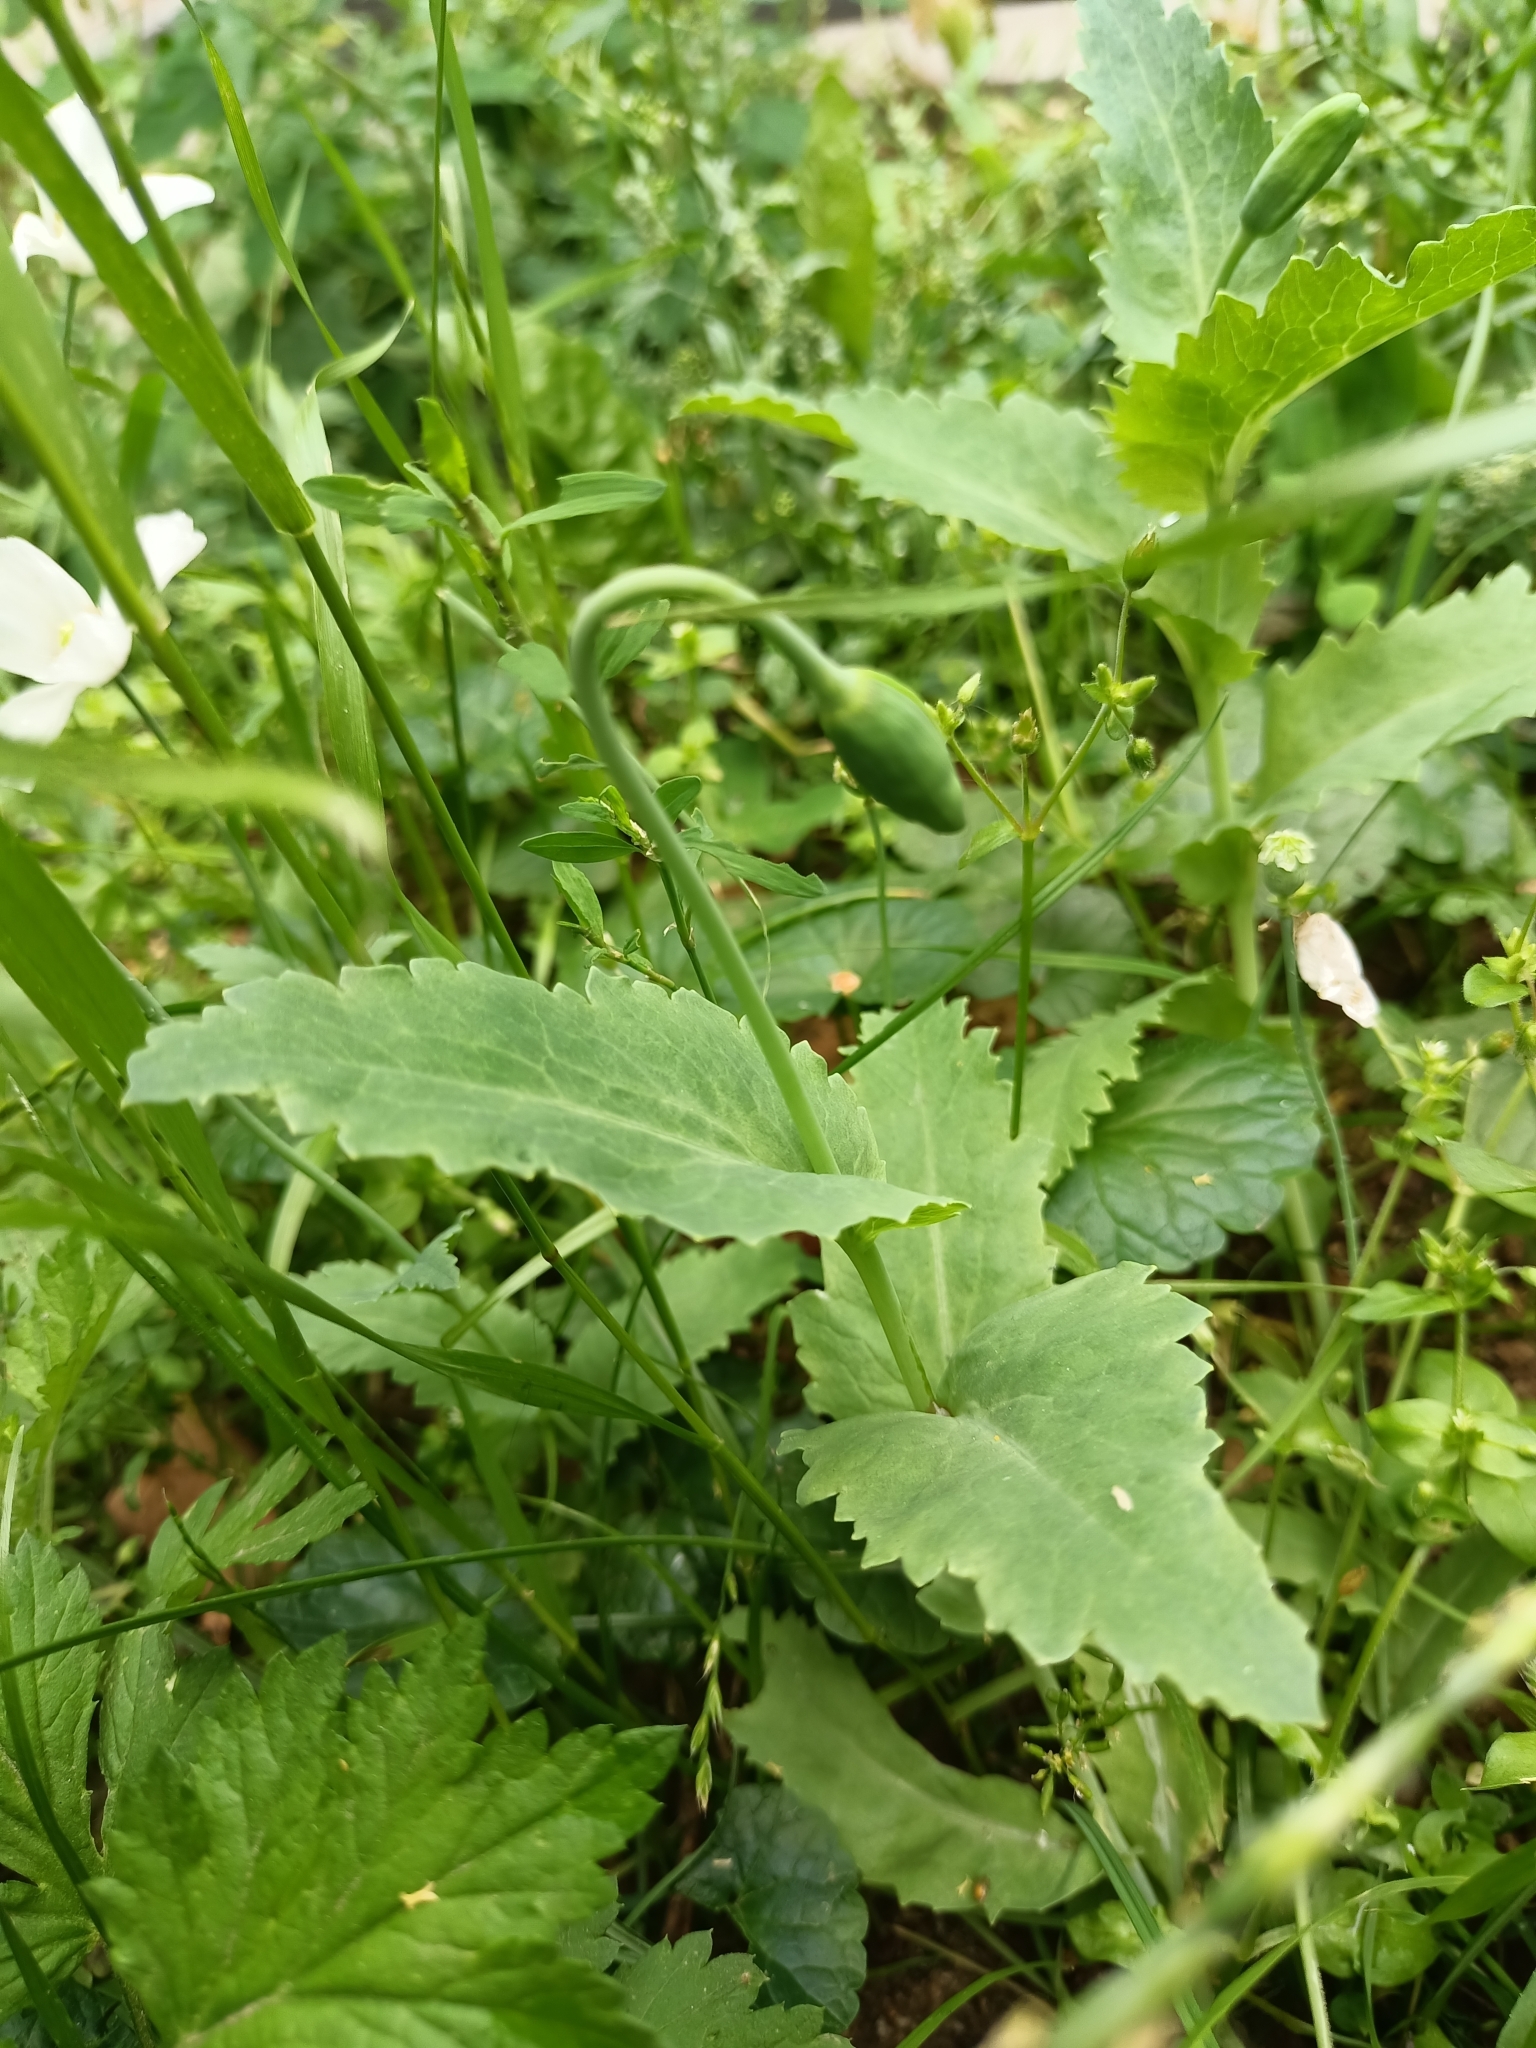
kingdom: Plantae
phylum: Tracheophyta
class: Magnoliopsida
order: Ranunculales
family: Papaveraceae
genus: Papaver
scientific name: Papaver somniferum
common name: Opium poppy
